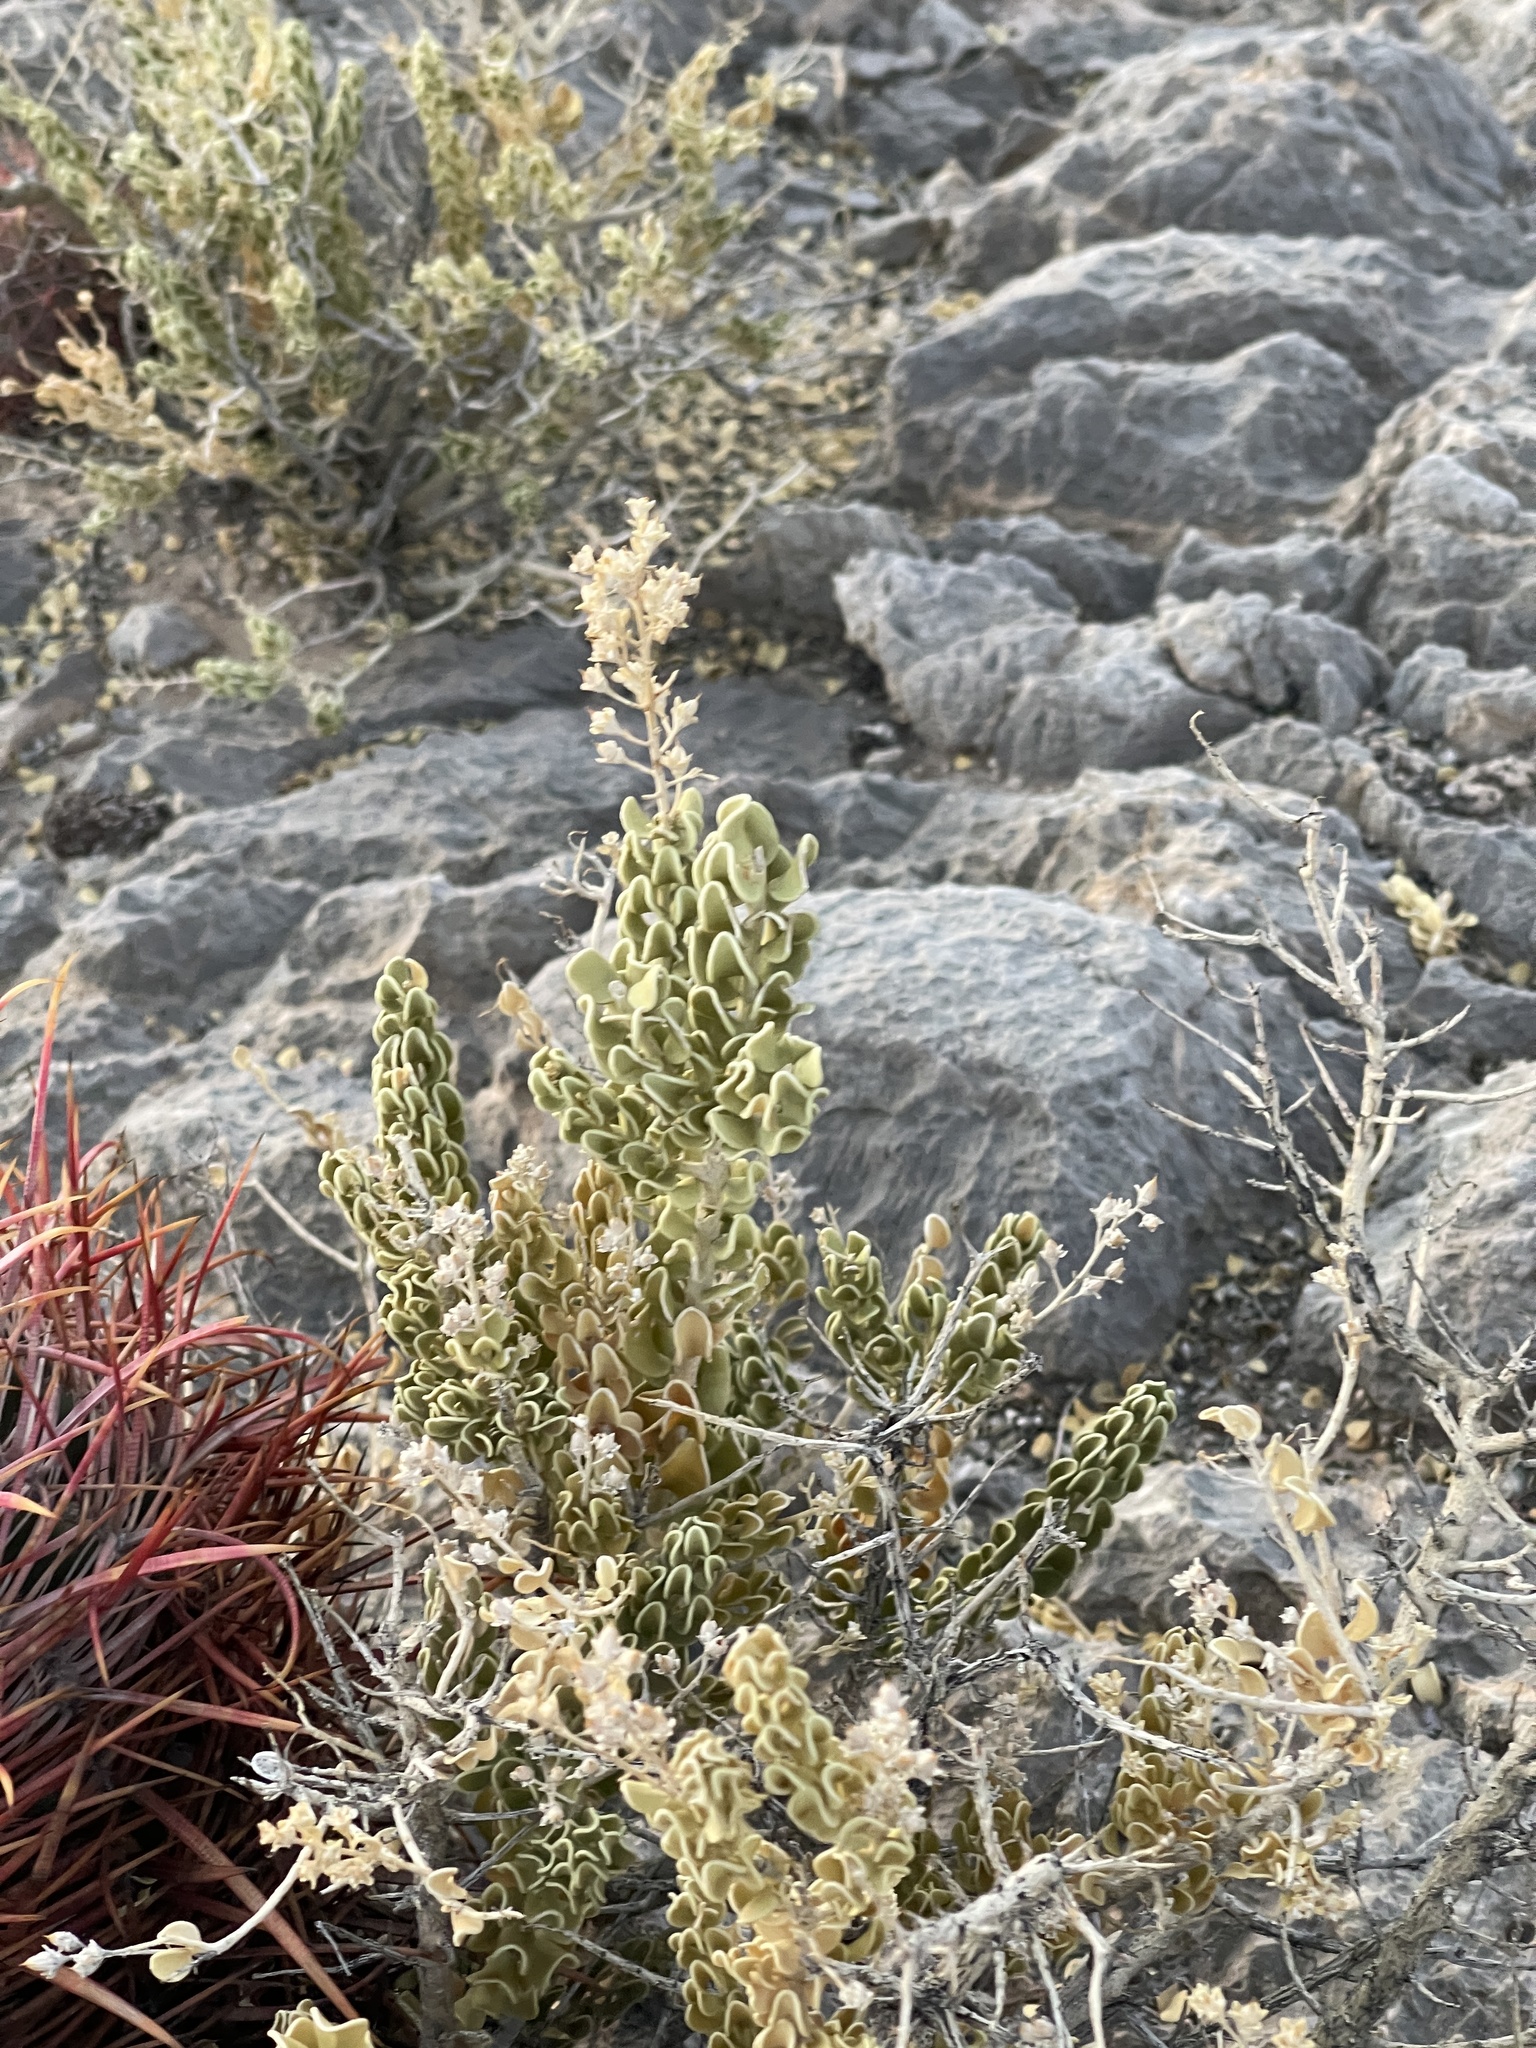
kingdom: Plantae
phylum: Tracheophyta
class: Magnoliopsida
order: Celastrales
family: Celastraceae
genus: Mortonia
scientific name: Mortonia utahensis
